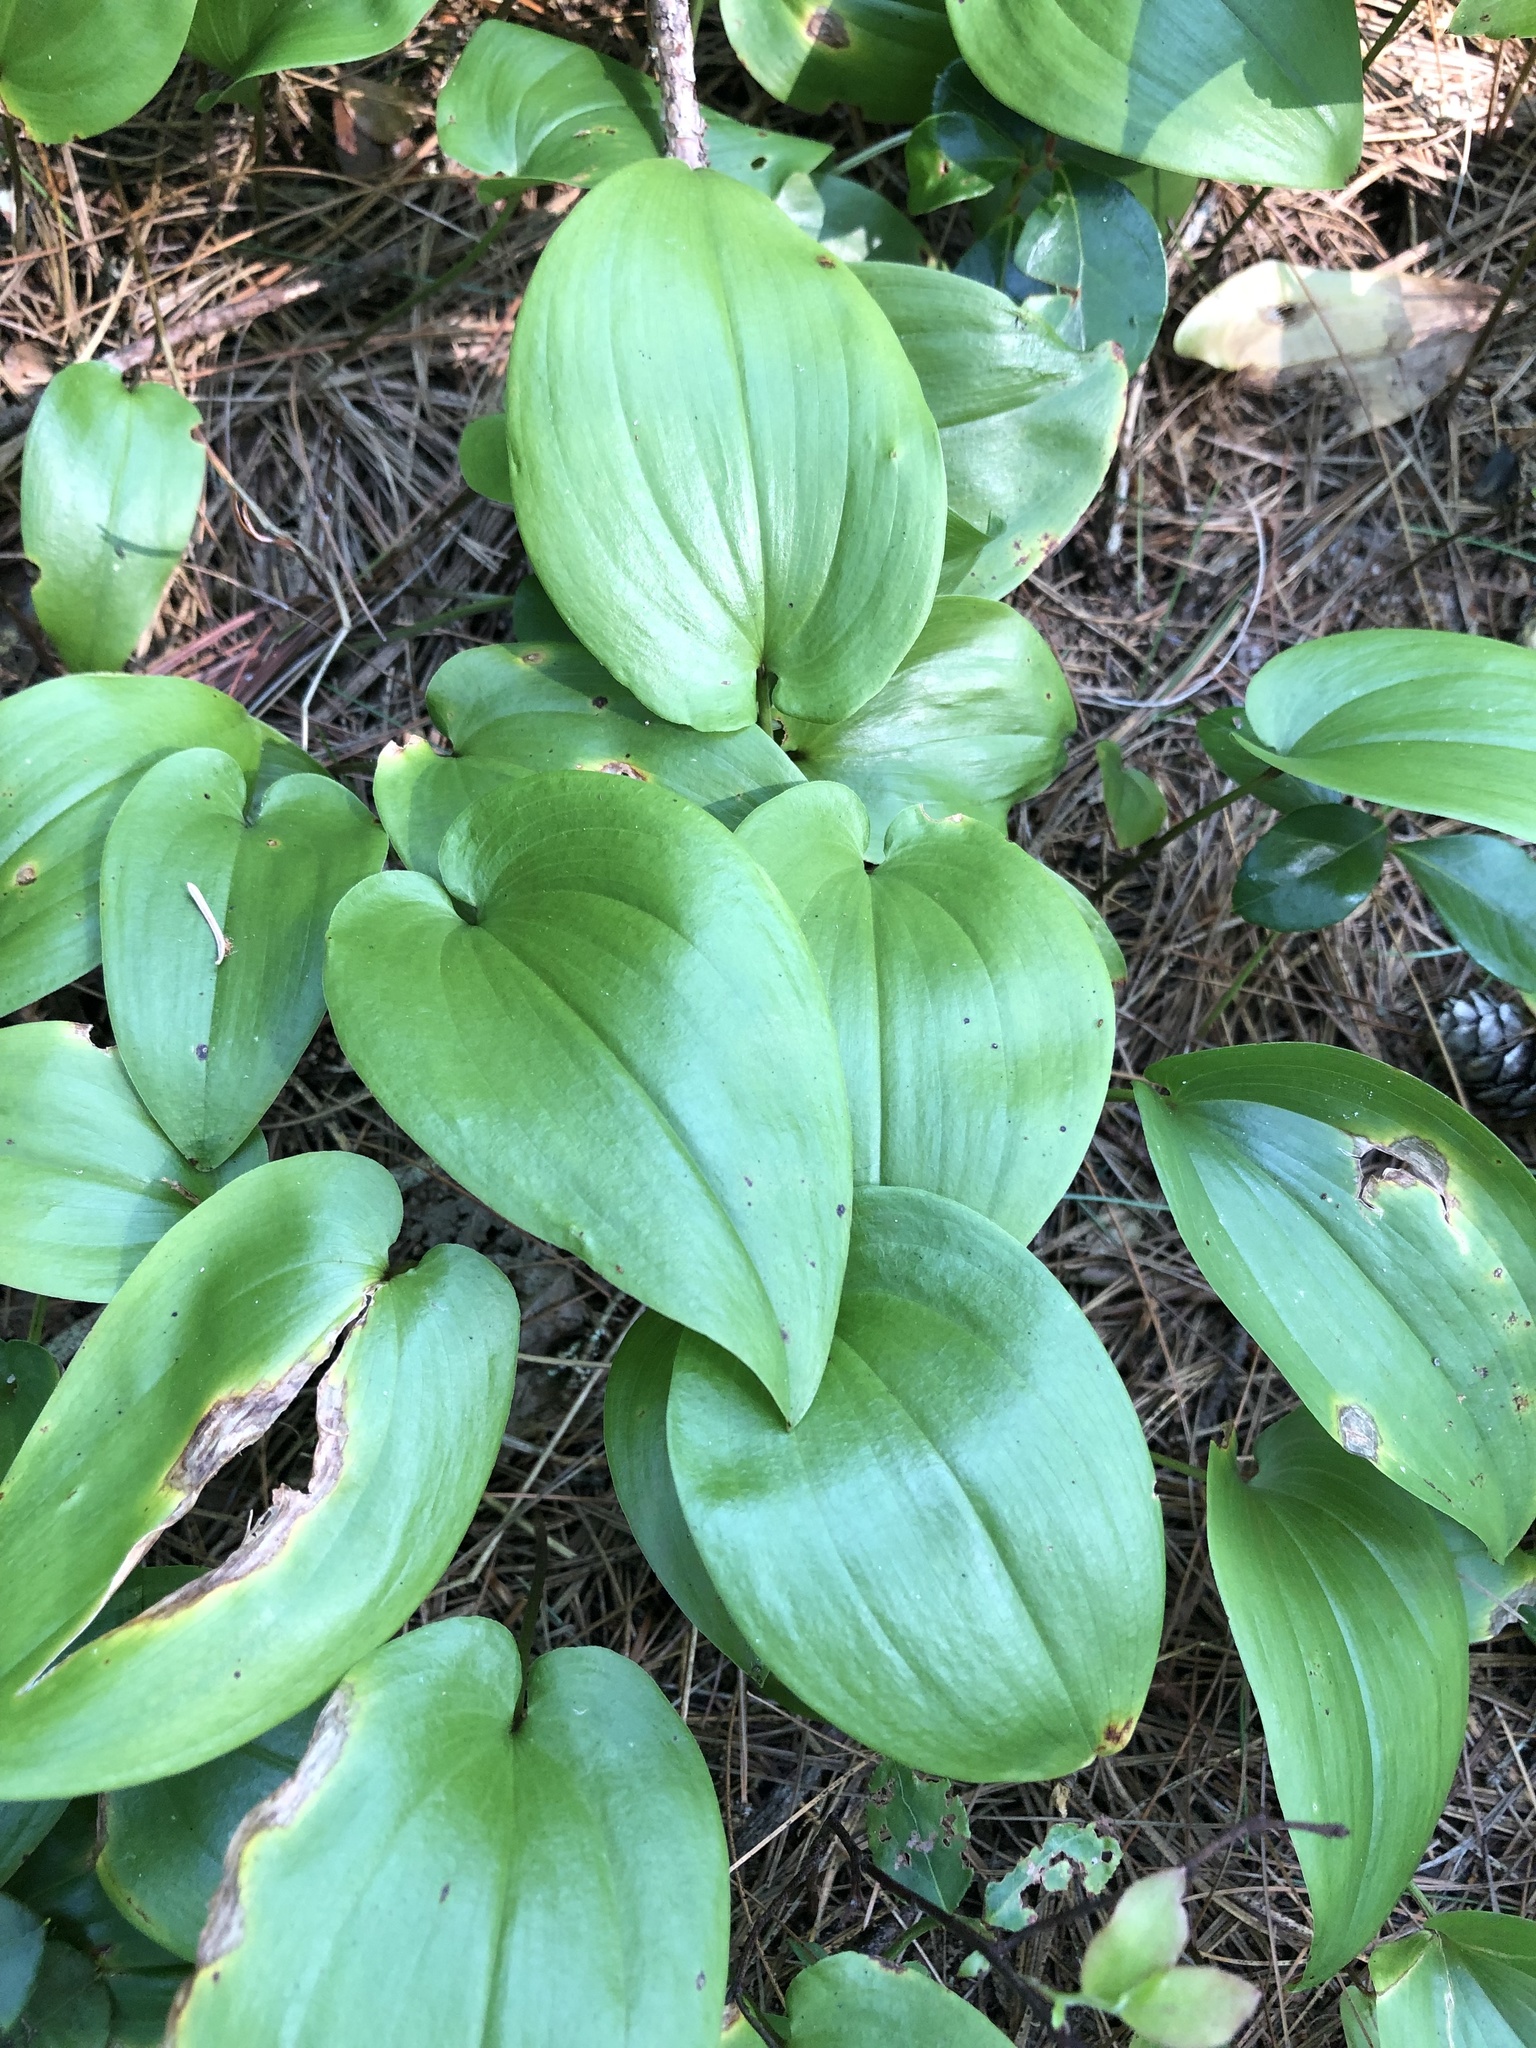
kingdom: Plantae
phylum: Tracheophyta
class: Liliopsida
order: Asparagales
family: Asparagaceae
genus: Maianthemum
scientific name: Maianthemum canadense
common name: False lily-of-the-valley
